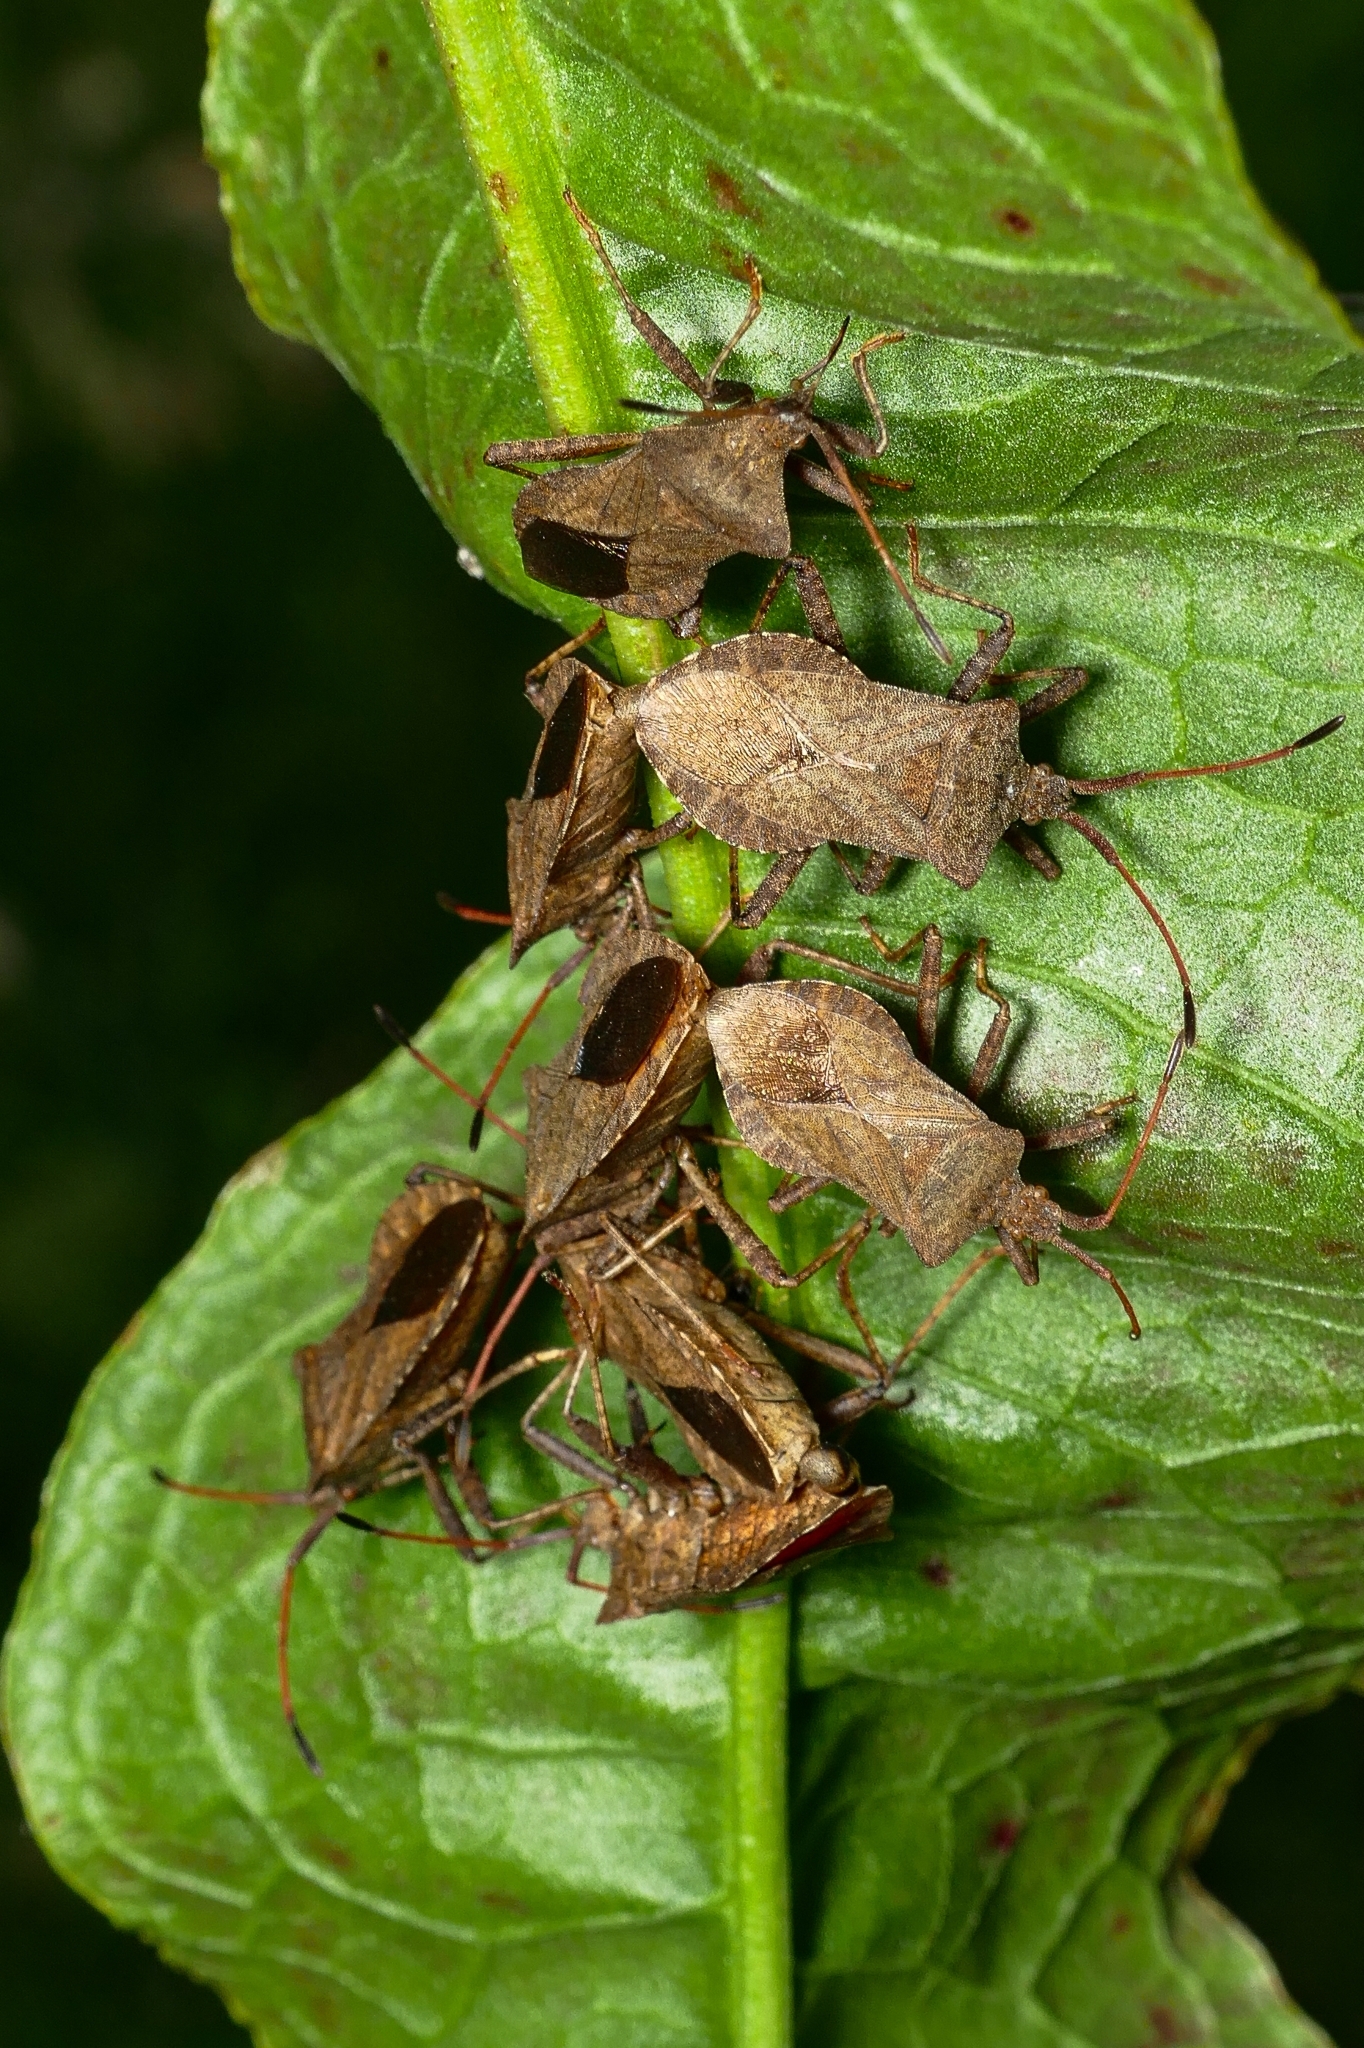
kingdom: Animalia
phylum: Arthropoda
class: Insecta
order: Hemiptera
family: Coreidae
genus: Coreus
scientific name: Coreus marginatus
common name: Dock bug
